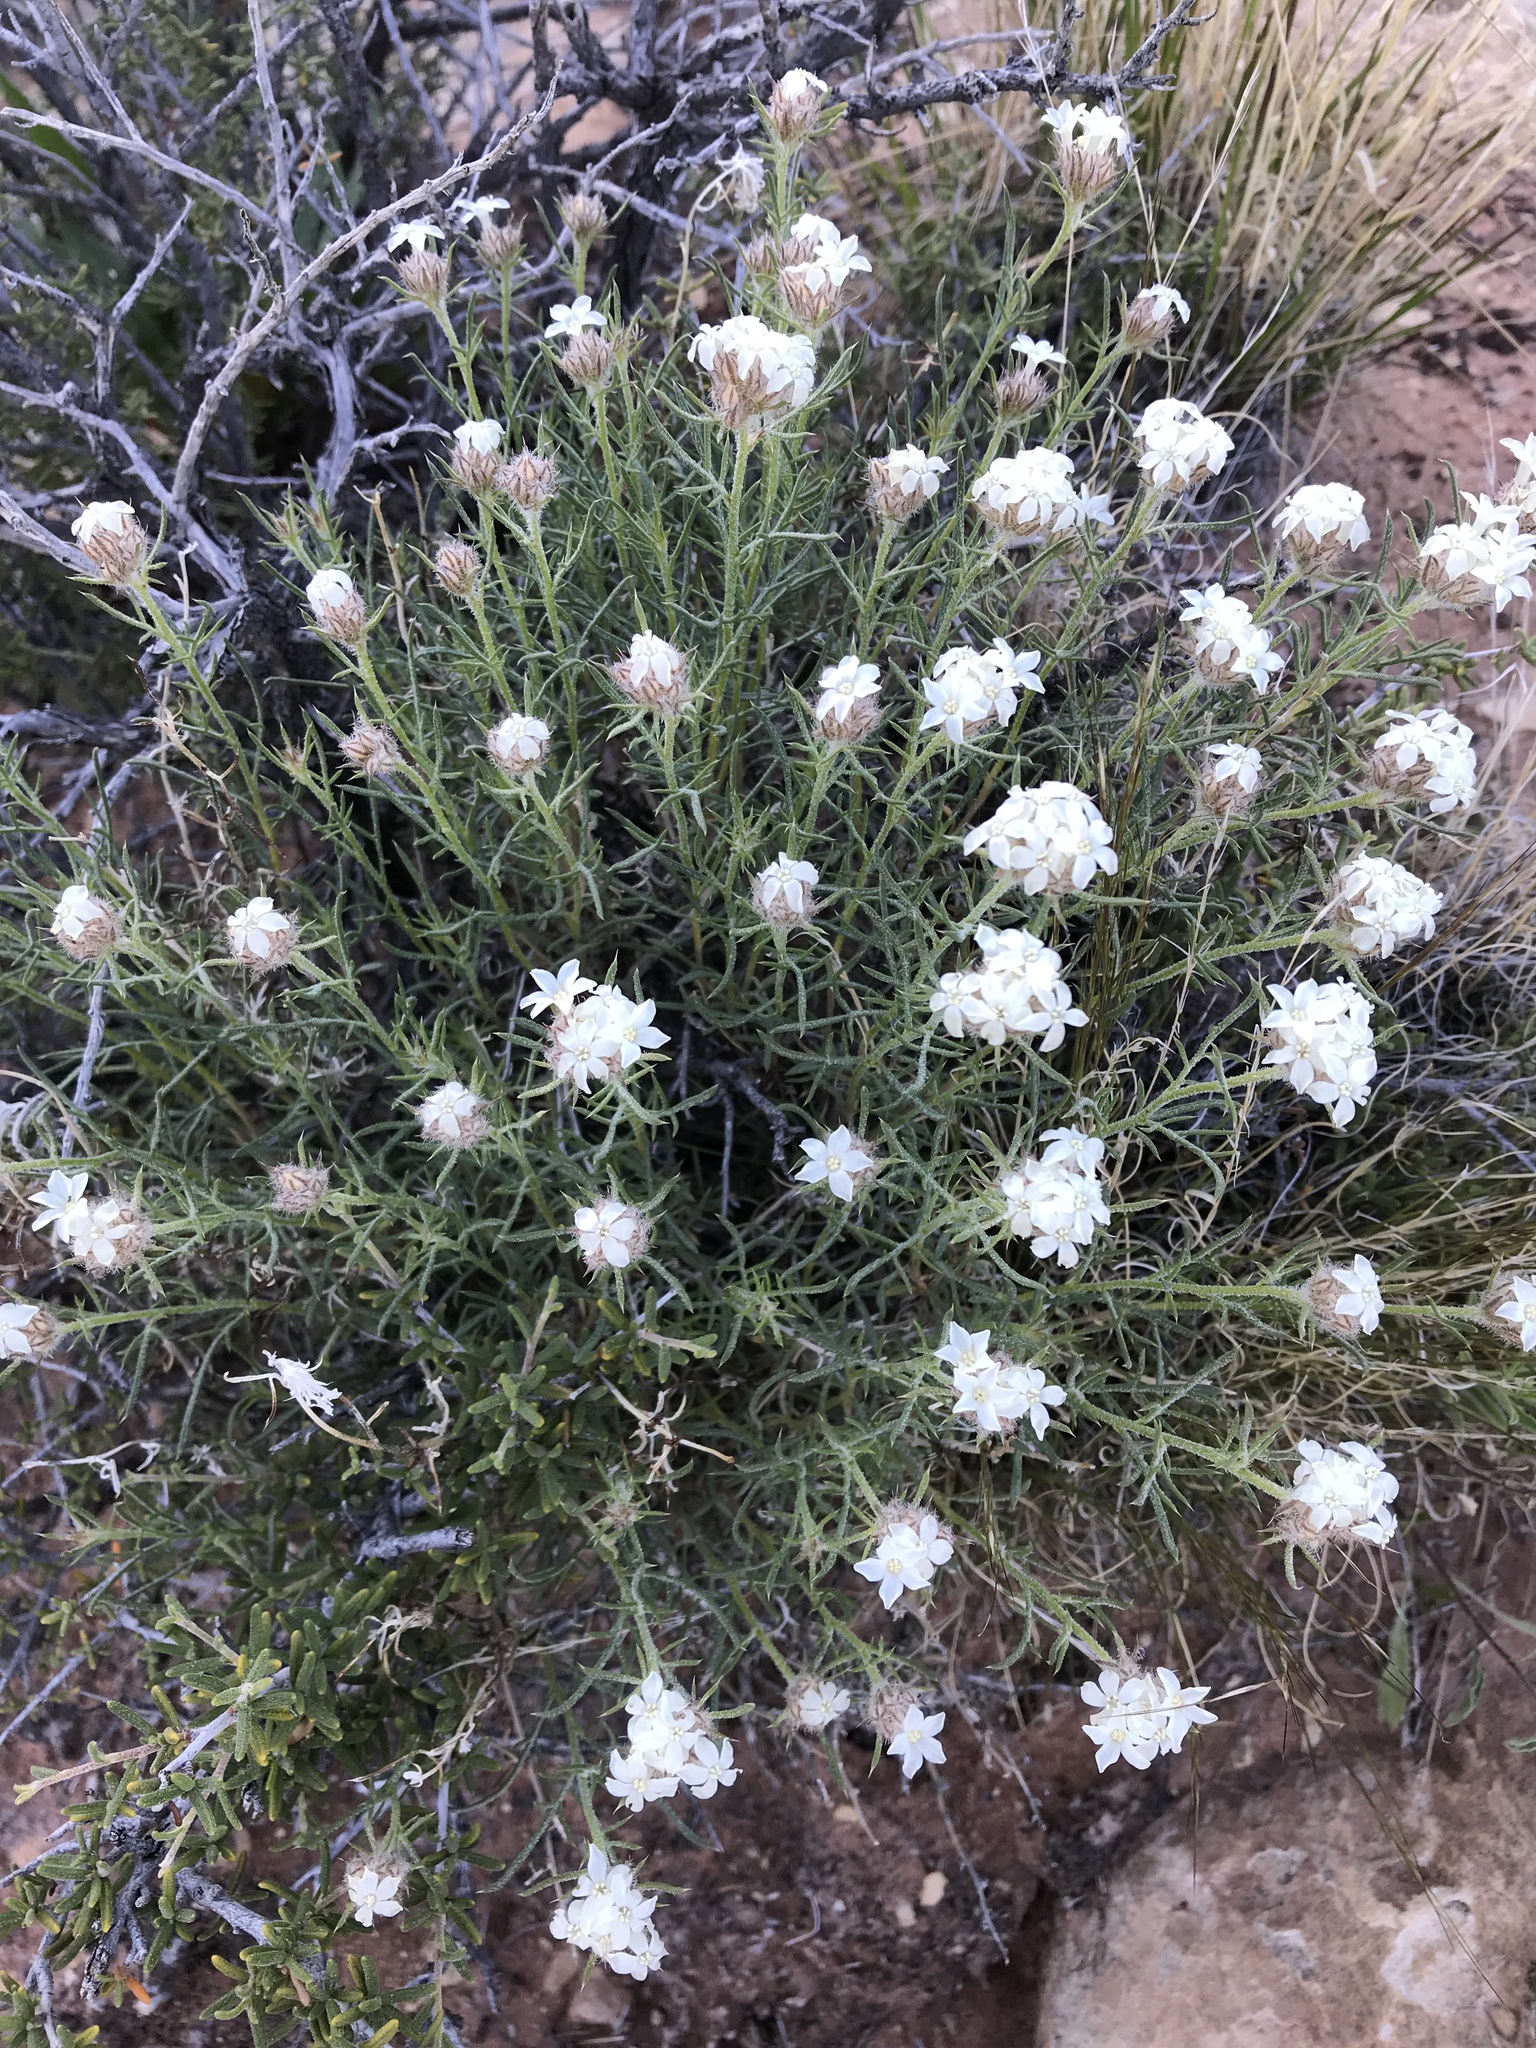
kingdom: Plantae
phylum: Tracheophyta
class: Magnoliopsida
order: Ericales
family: Polemoniaceae
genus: Ipomopsis
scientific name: Ipomopsis roseata
